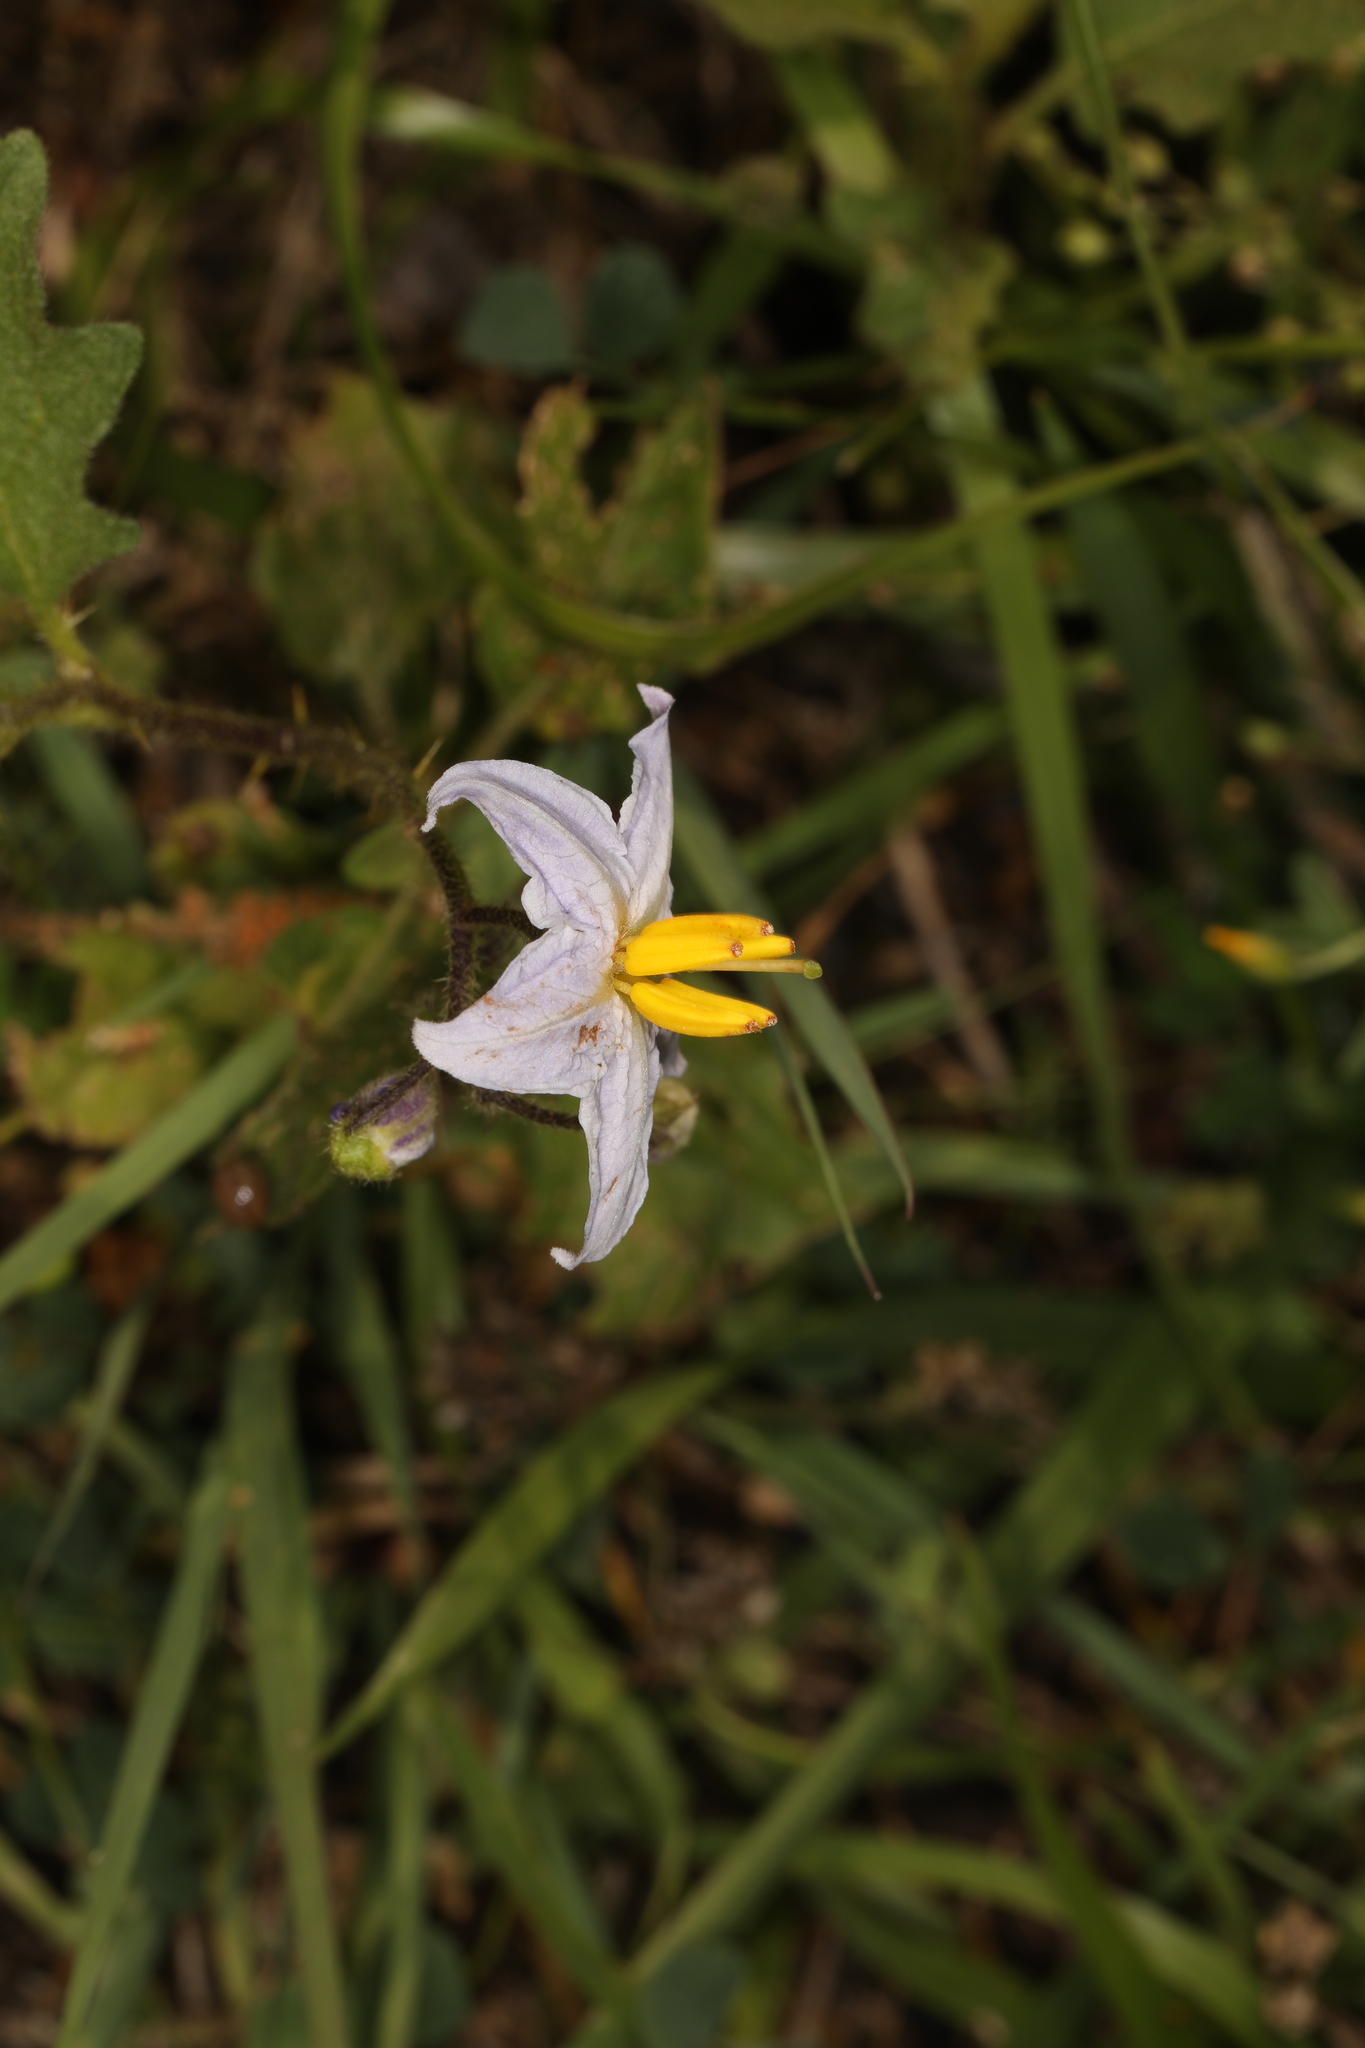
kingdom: Plantae
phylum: Tracheophyta
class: Magnoliopsida
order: Solanales
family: Solanaceae
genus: Solanum
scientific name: Solanum carolinense
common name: Horse-nettle
